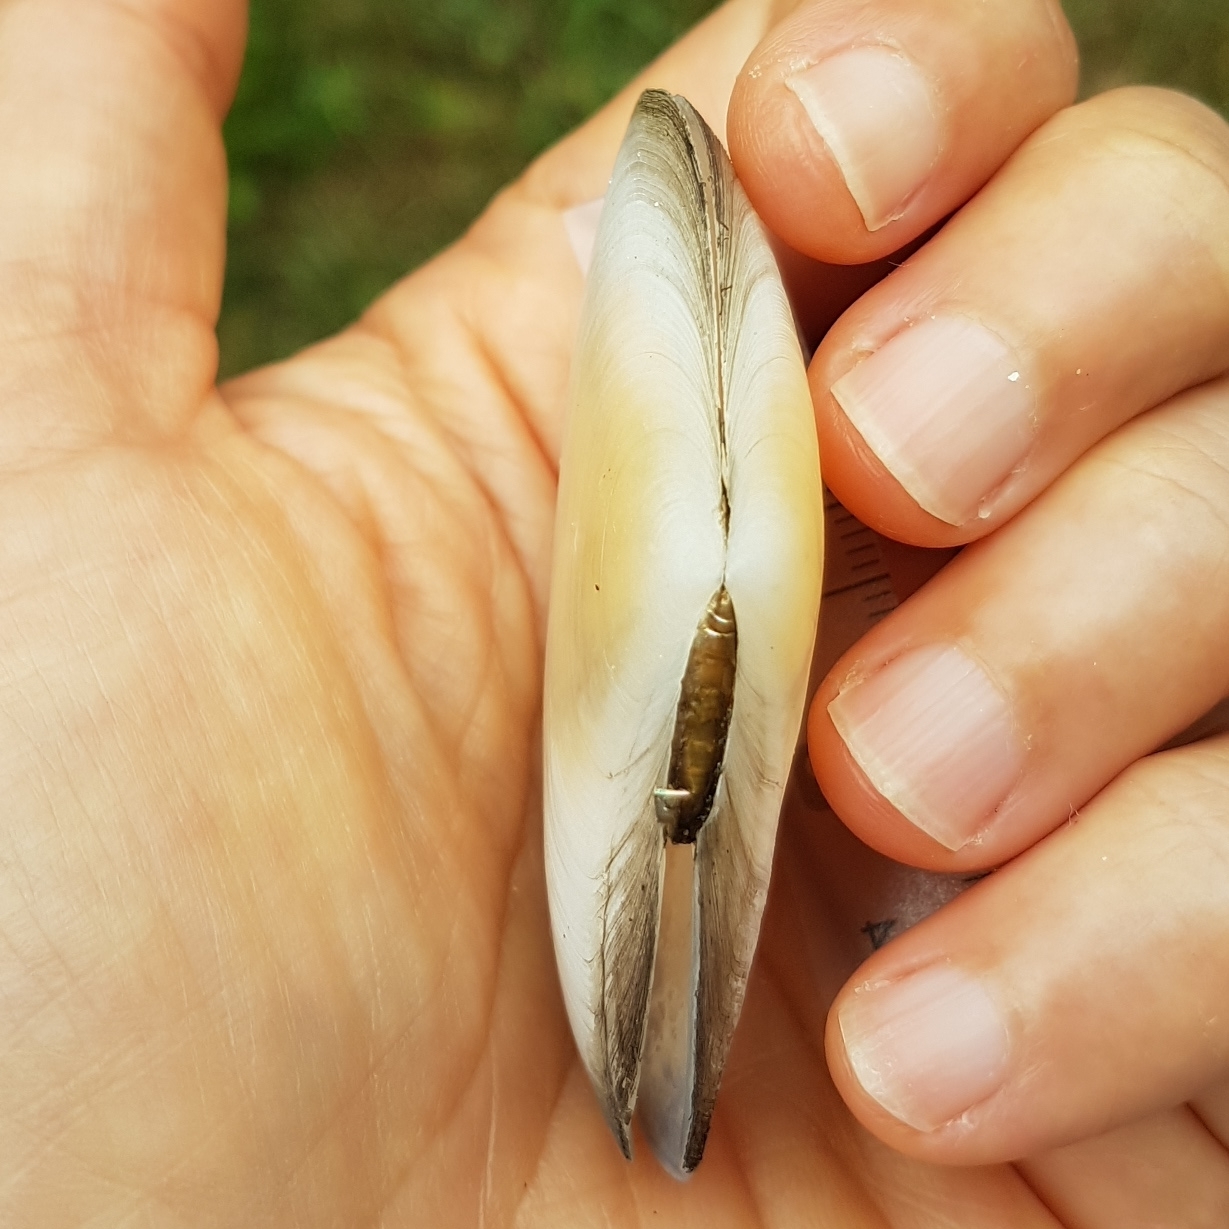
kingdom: Animalia
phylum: Mollusca
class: Bivalvia
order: Cardiida
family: Tellinidae
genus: Peronaea
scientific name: Peronaea planata
